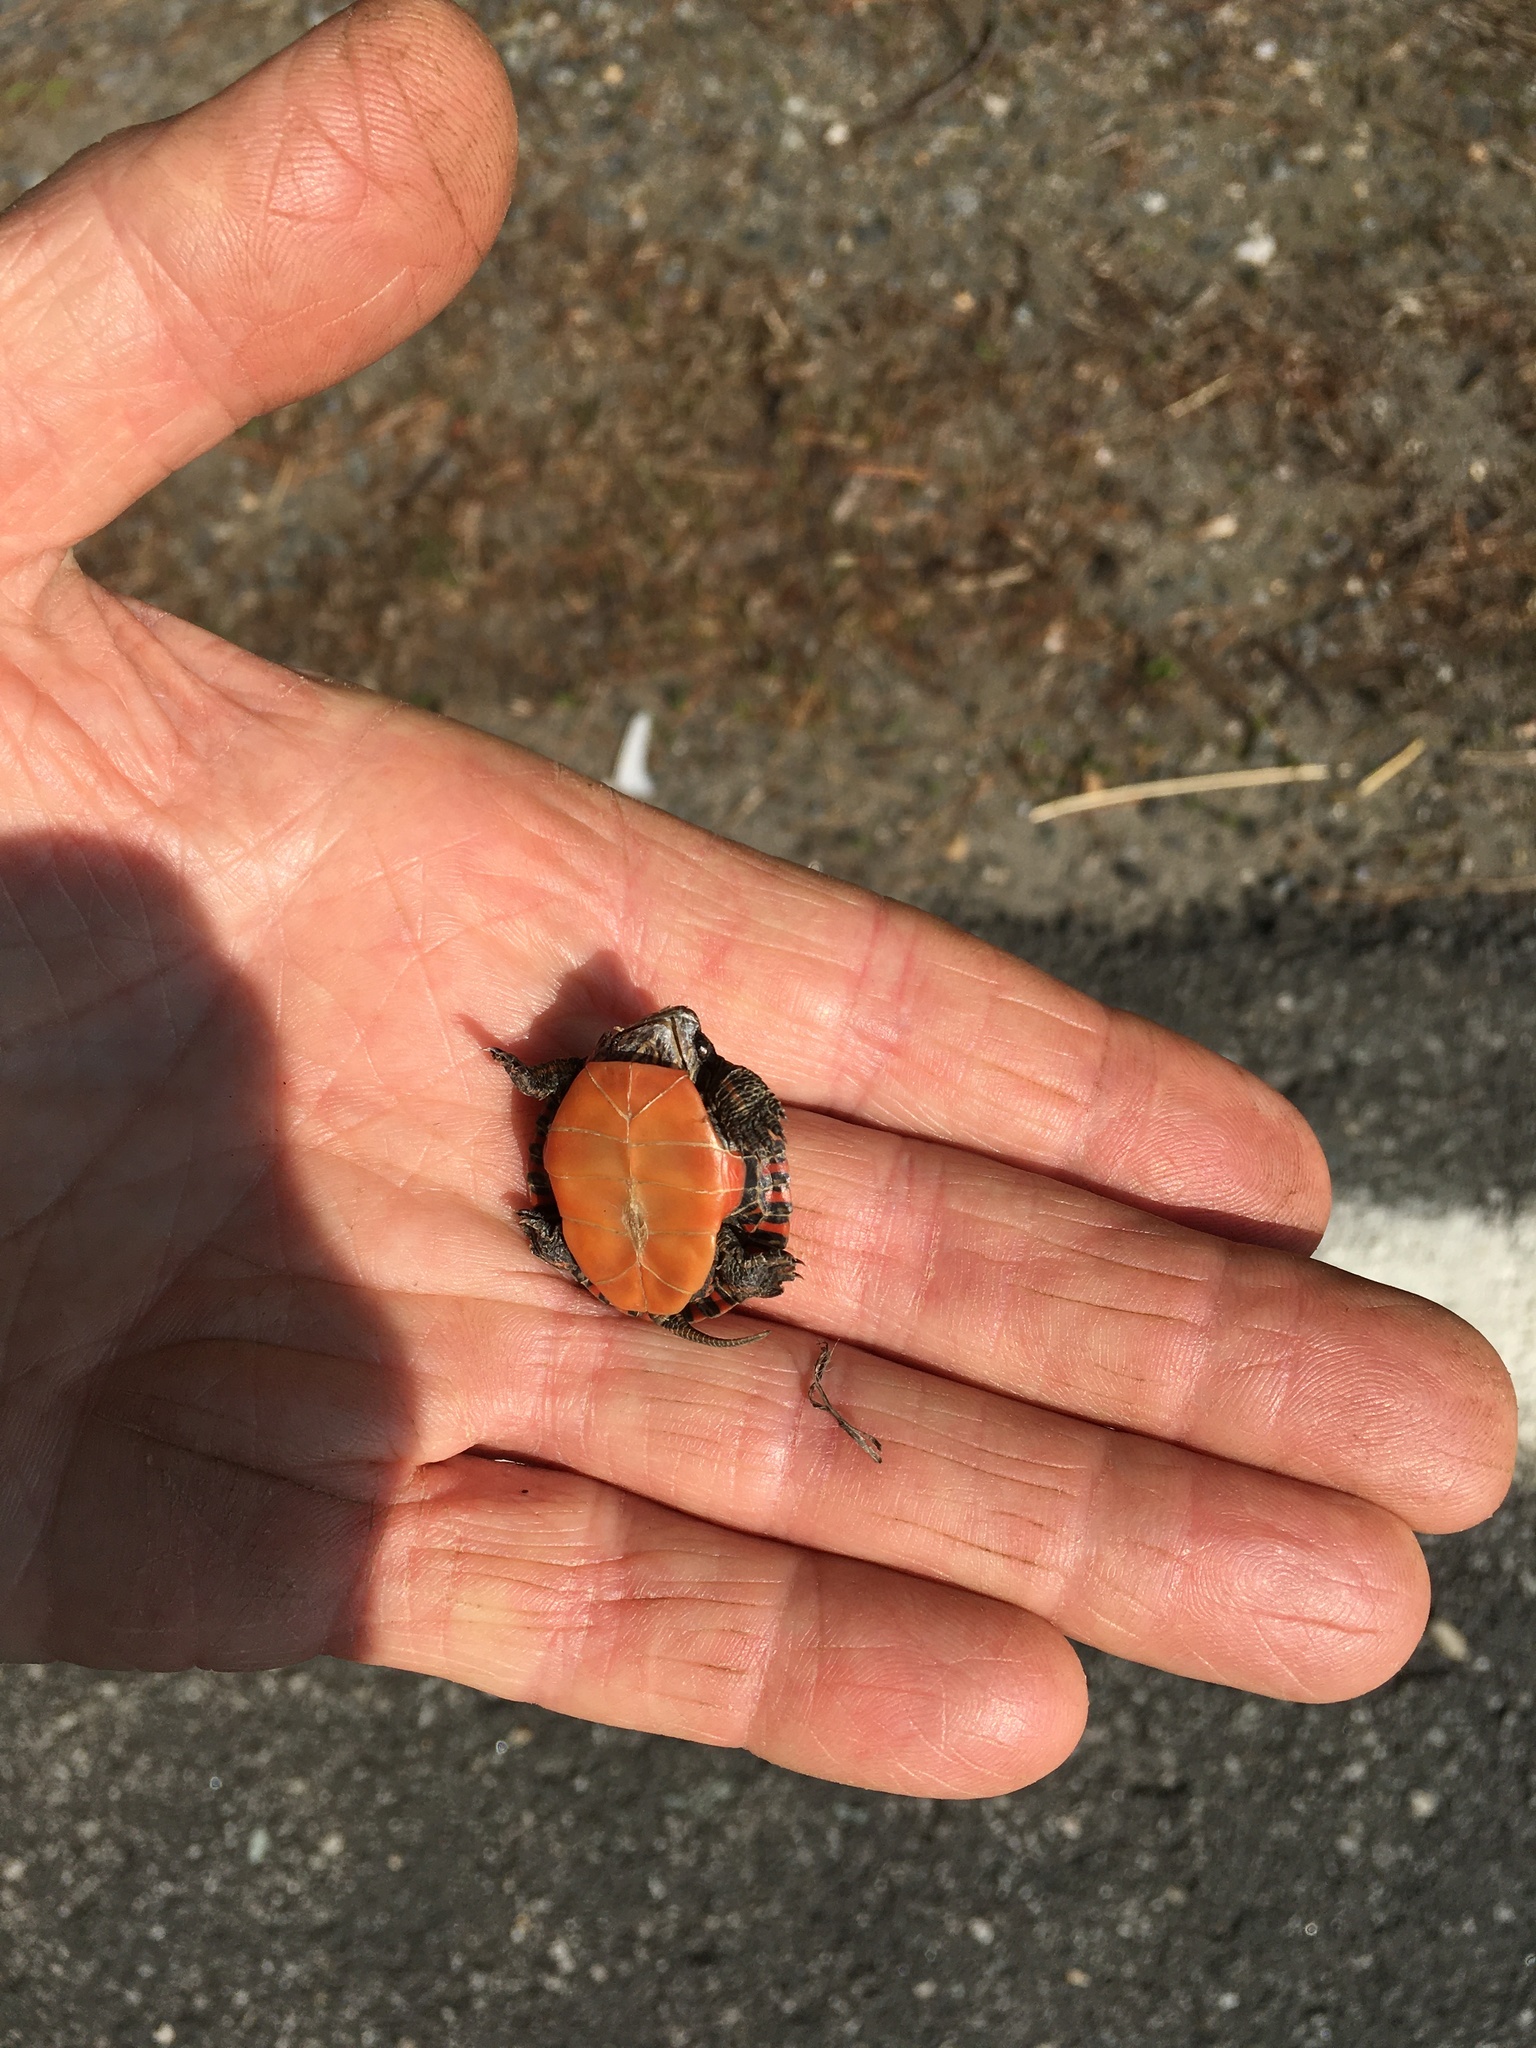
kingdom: Animalia
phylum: Chordata
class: Testudines
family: Emydidae
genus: Chrysemys
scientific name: Chrysemys picta
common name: Painted turtle
